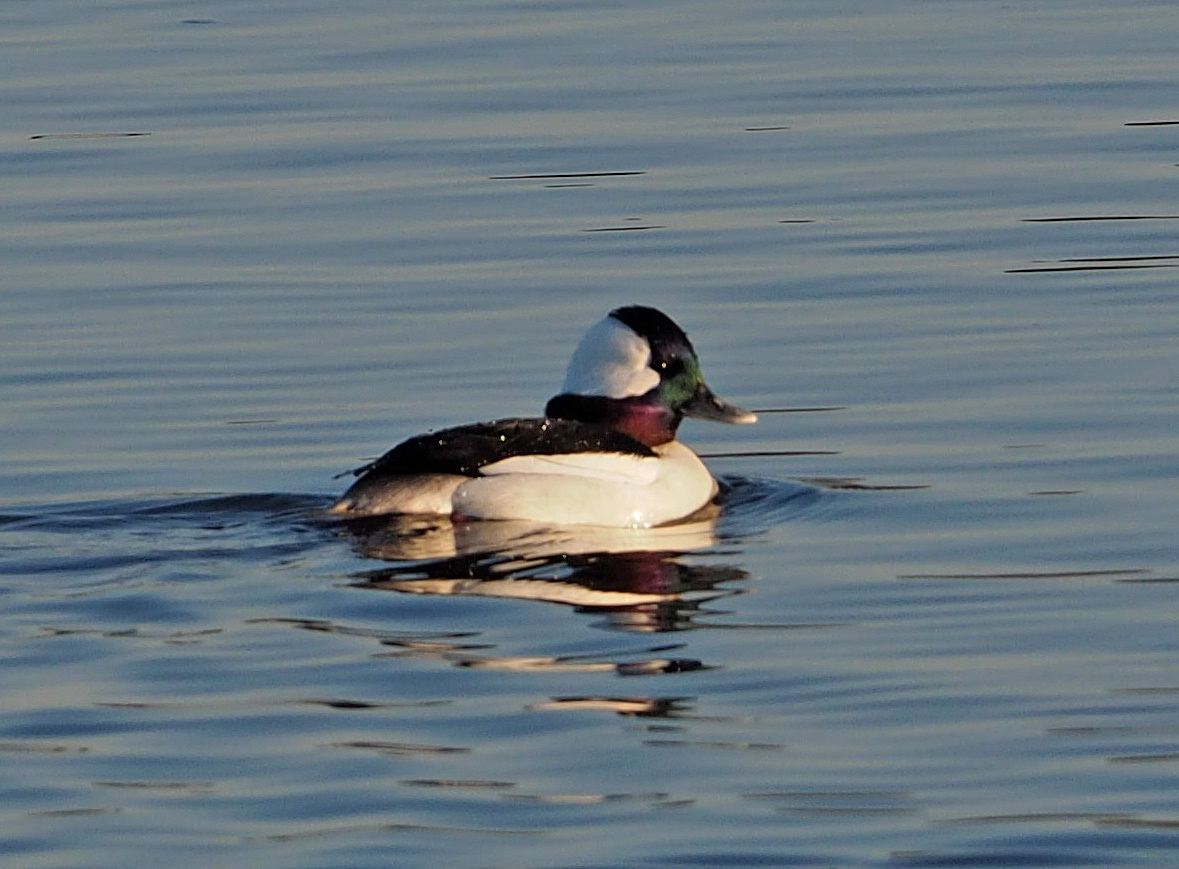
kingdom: Animalia
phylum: Chordata
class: Aves
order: Anseriformes
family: Anatidae
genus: Bucephala
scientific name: Bucephala albeola
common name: Bufflehead
